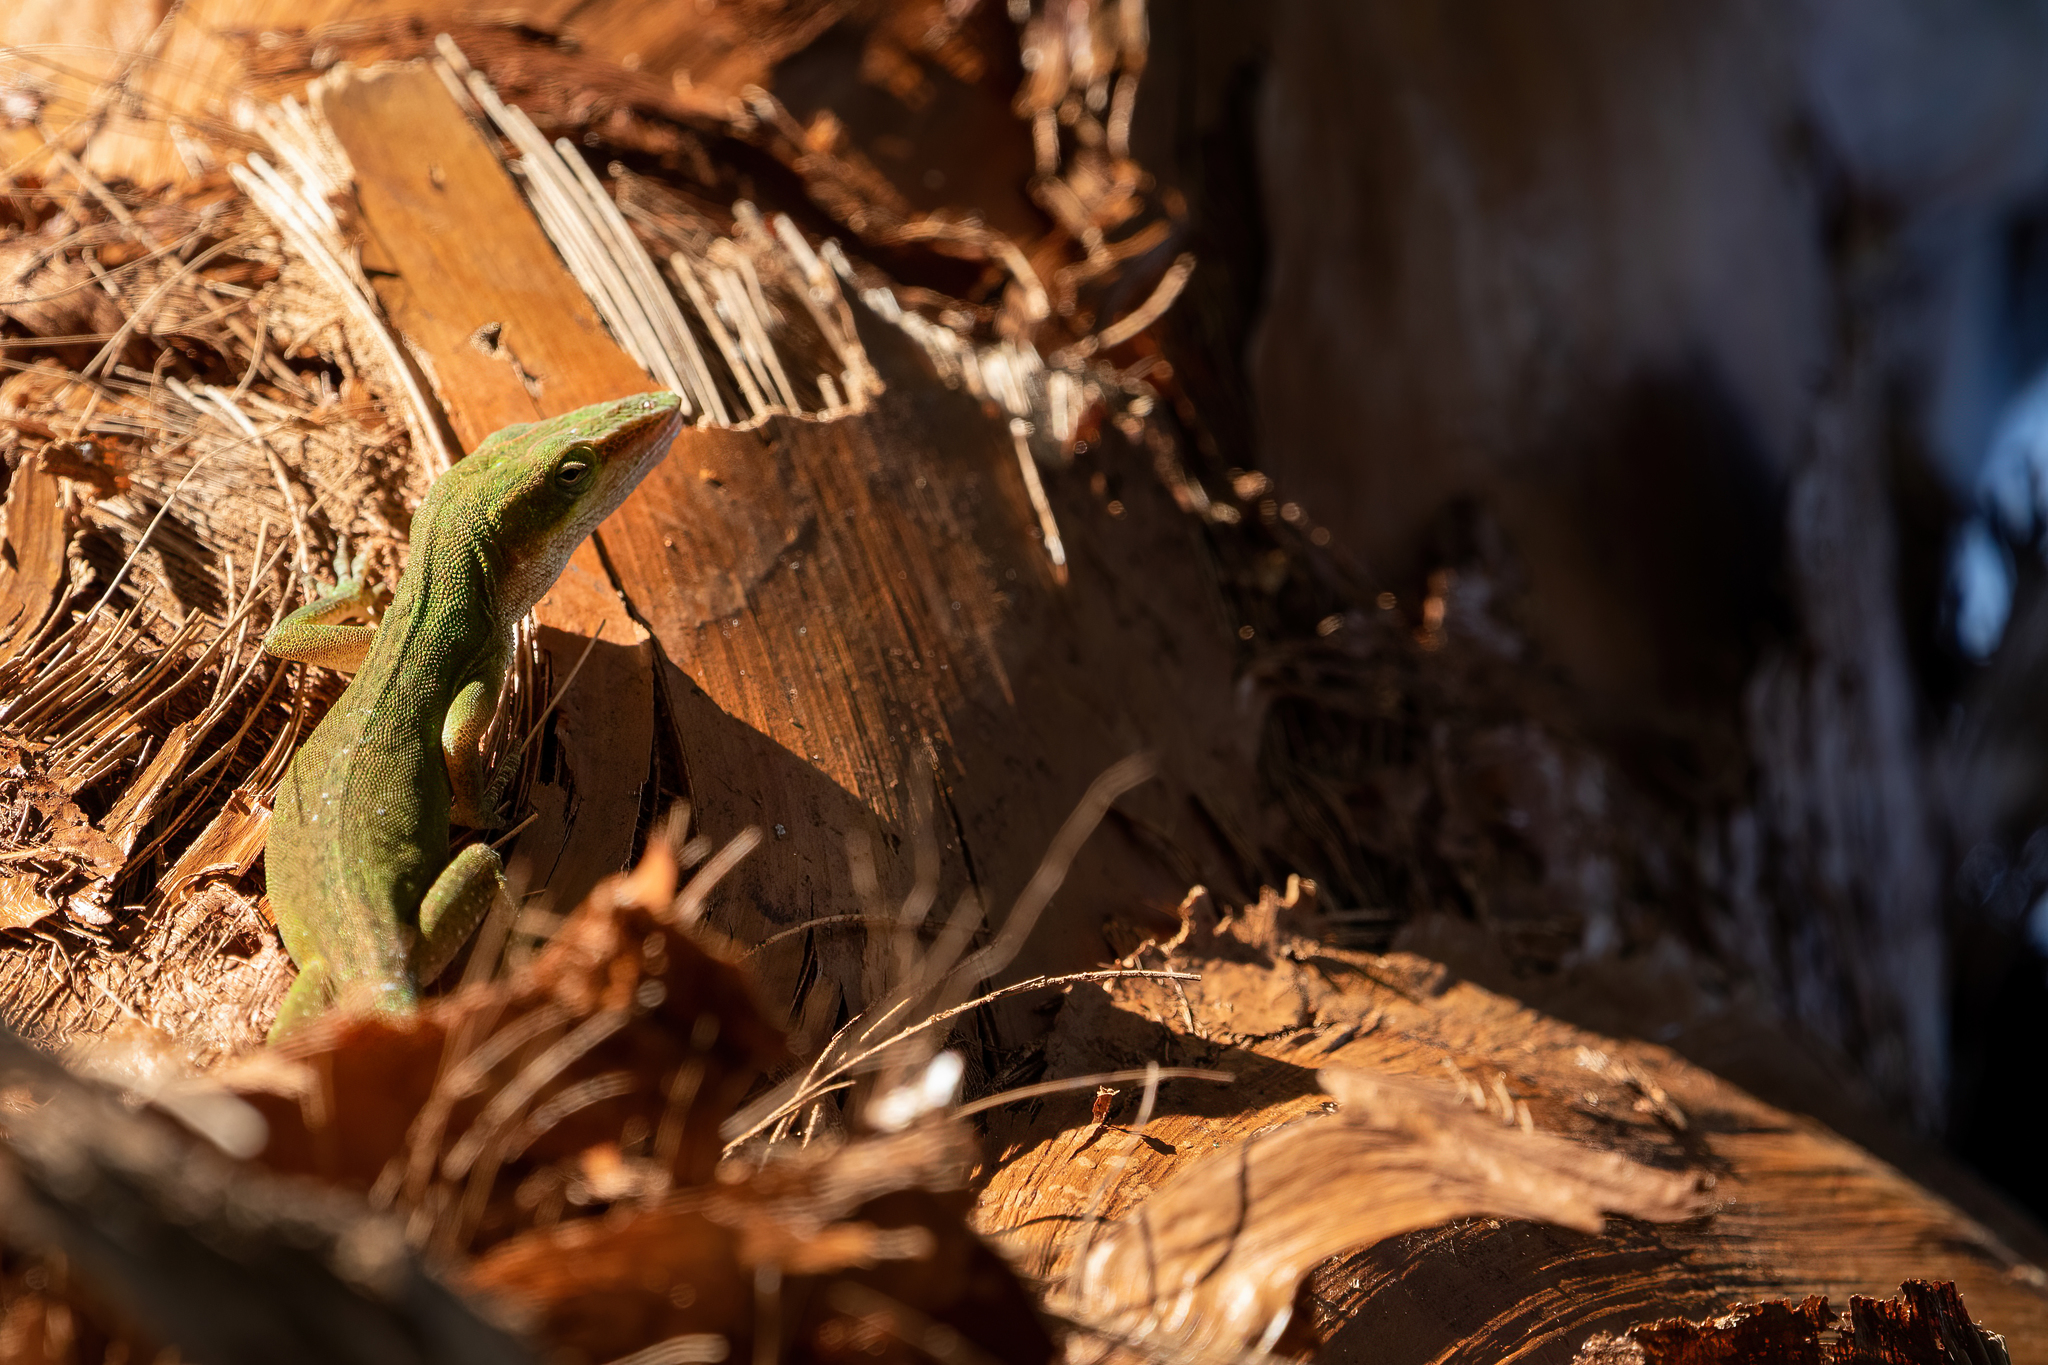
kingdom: Animalia
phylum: Chordata
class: Squamata
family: Dactyloidae
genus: Anolis
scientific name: Anolis carolinensis
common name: Green anole
